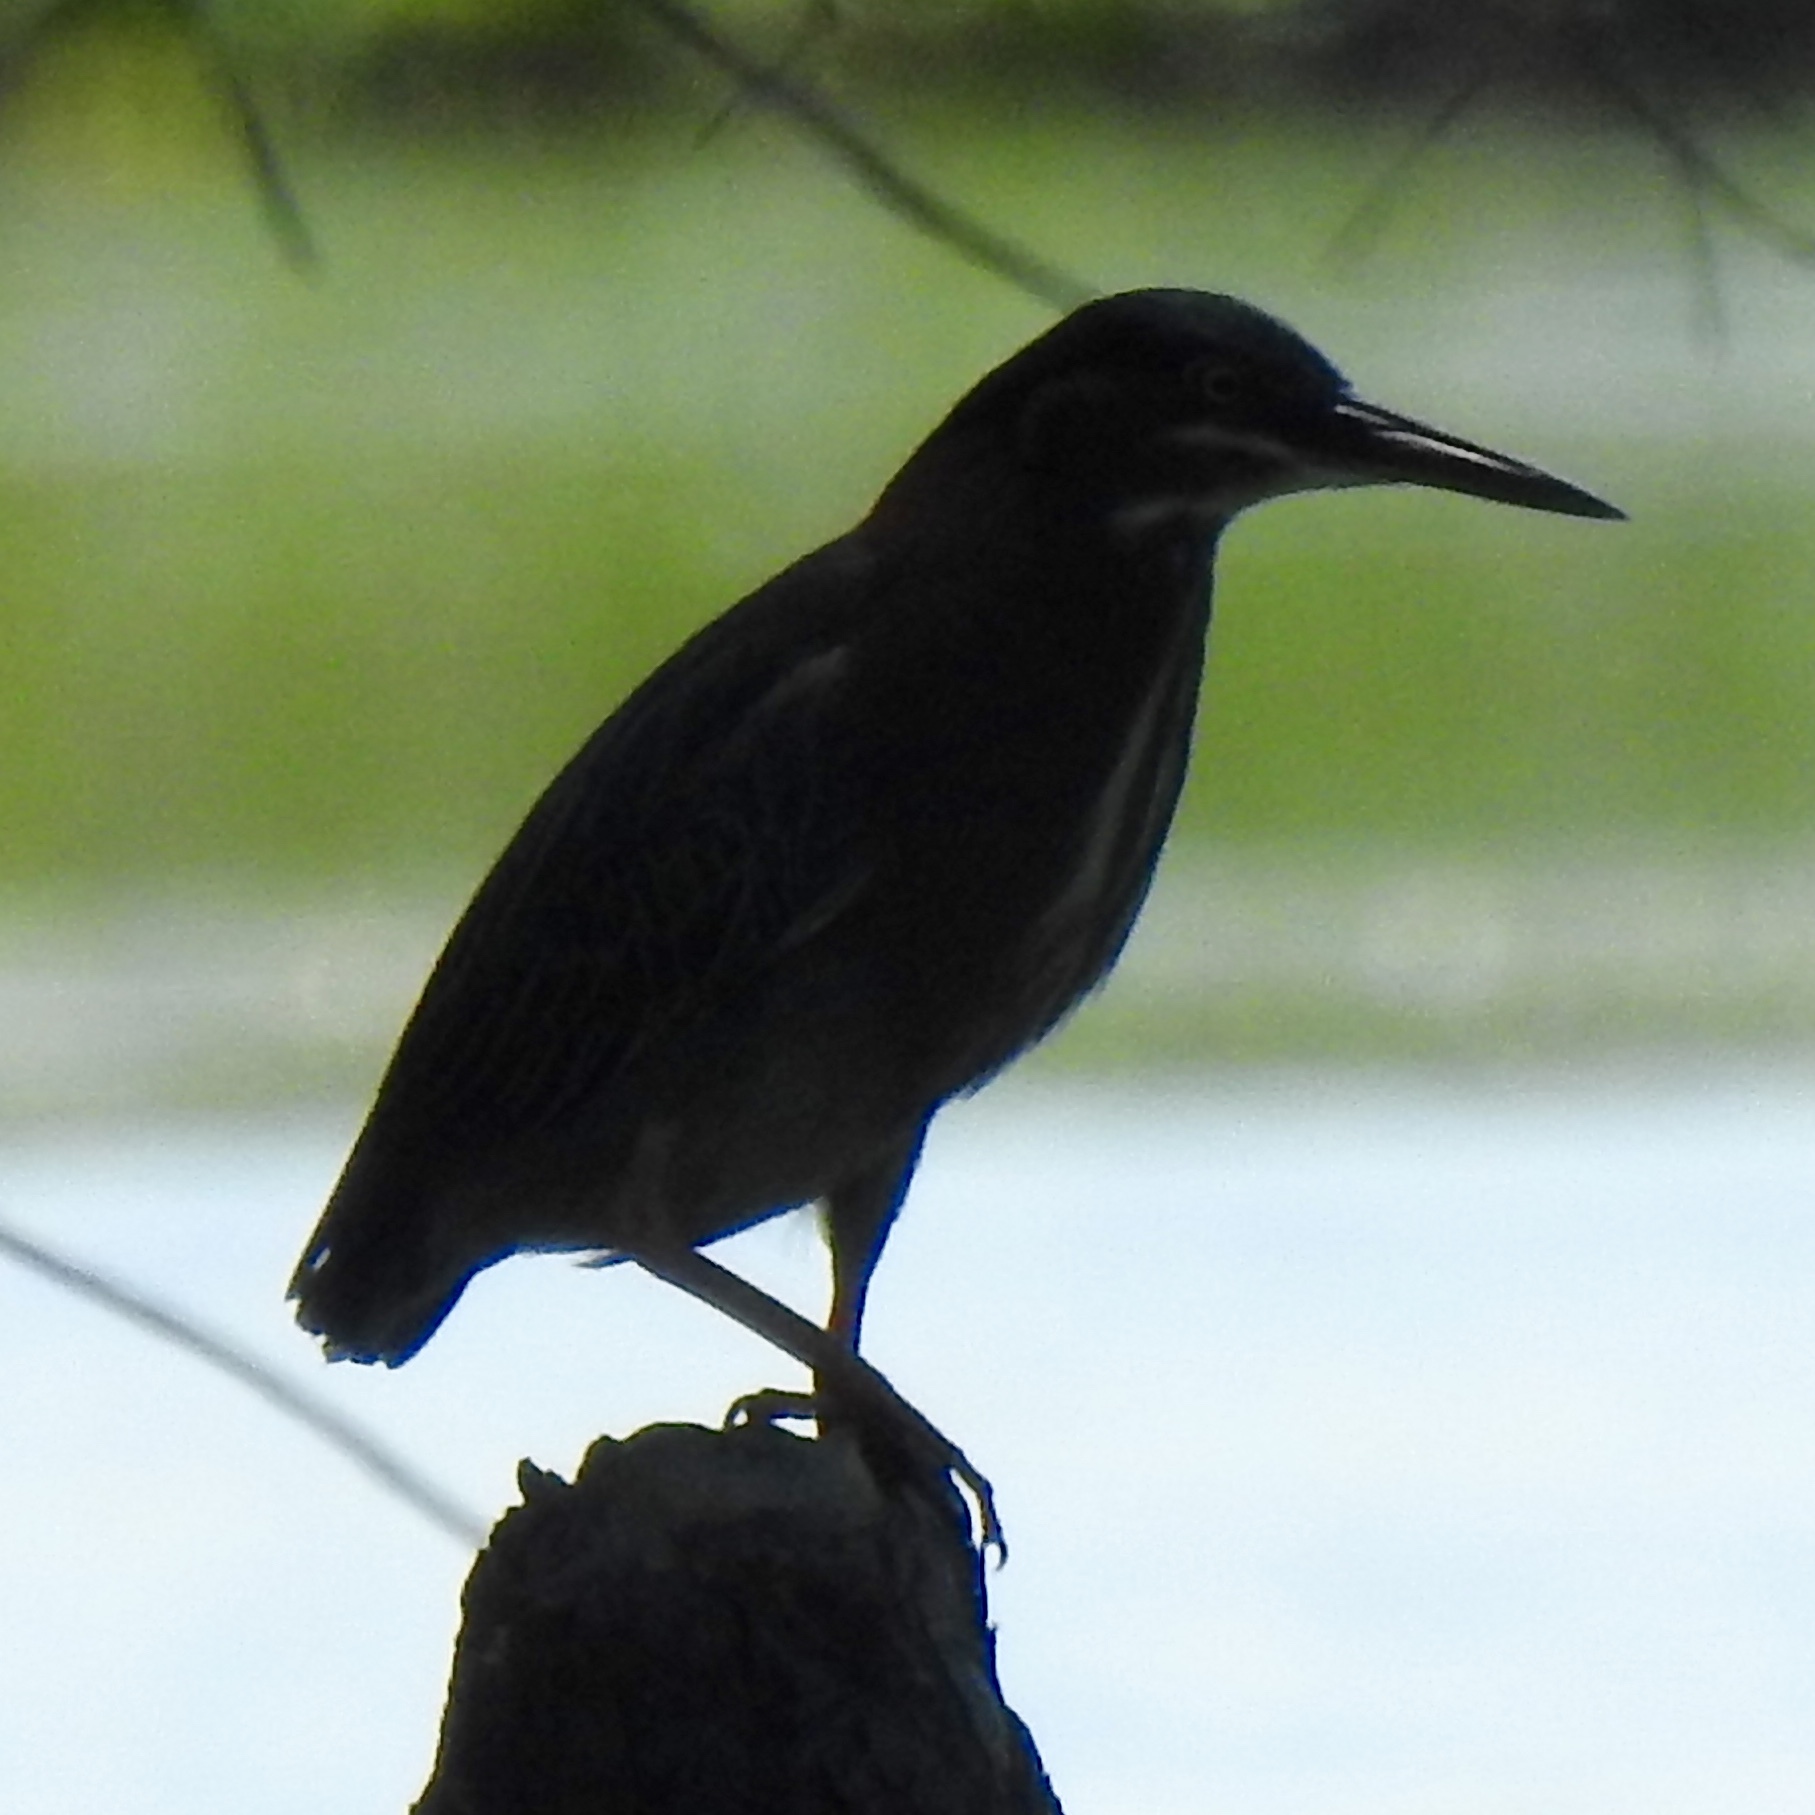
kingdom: Animalia
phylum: Chordata
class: Aves
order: Pelecaniformes
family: Ardeidae
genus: Butorides
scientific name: Butorides virescens
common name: Green heron
